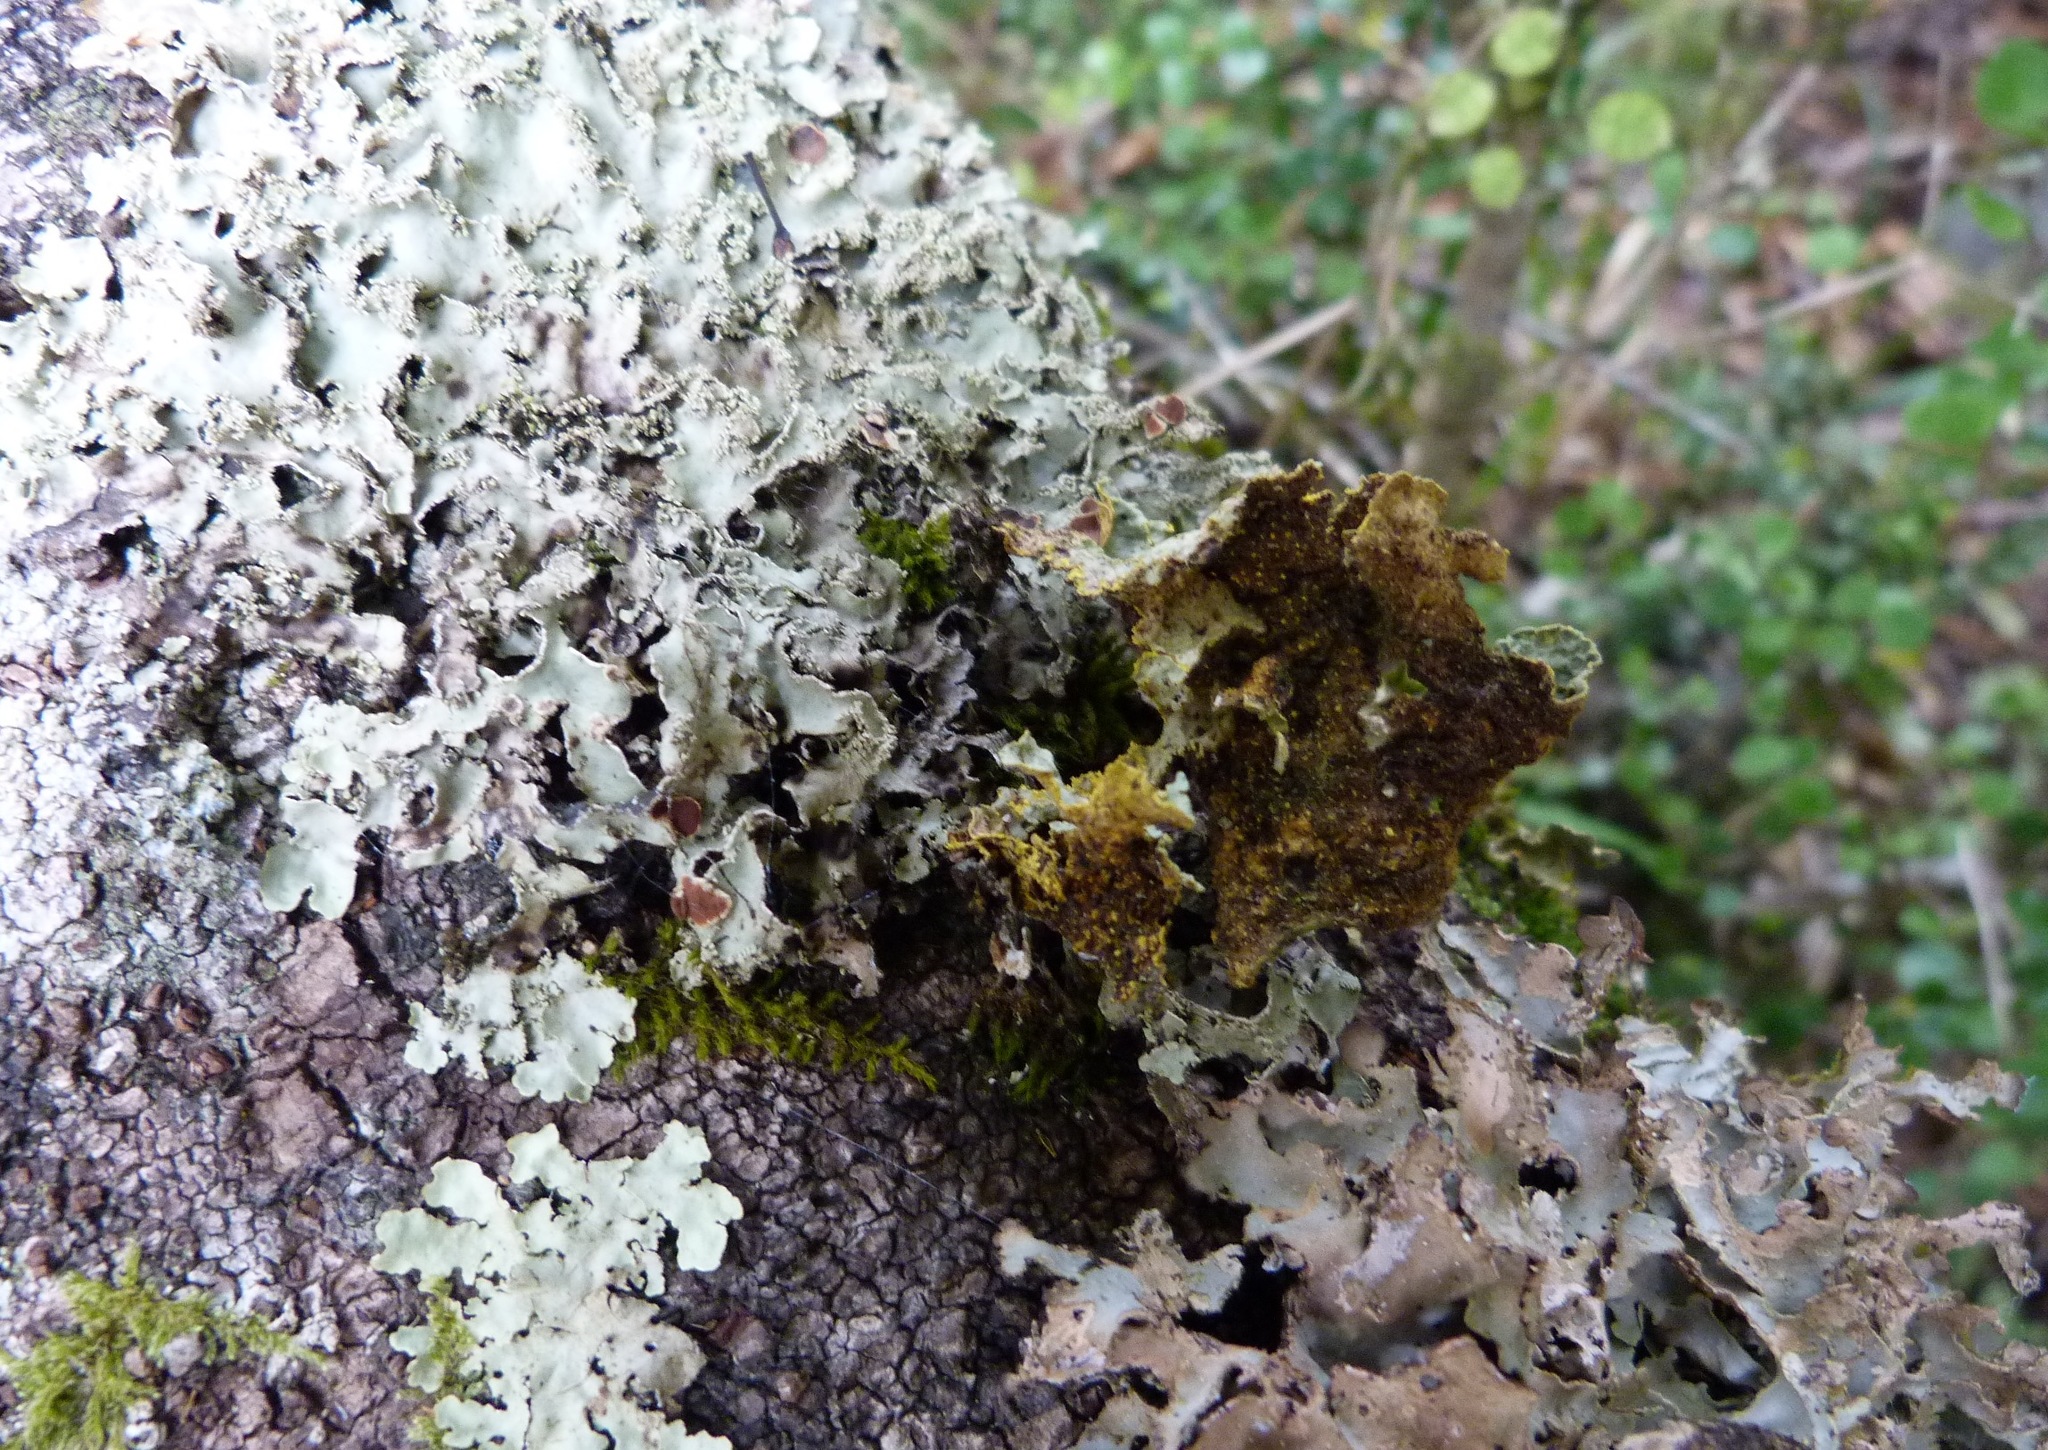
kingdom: Fungi
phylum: Ascomycota
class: Lecanoromycetes
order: Peltigerales
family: Lobariaceae
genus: Pseudocyphellaria
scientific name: Pseudocyphellaria glabra
